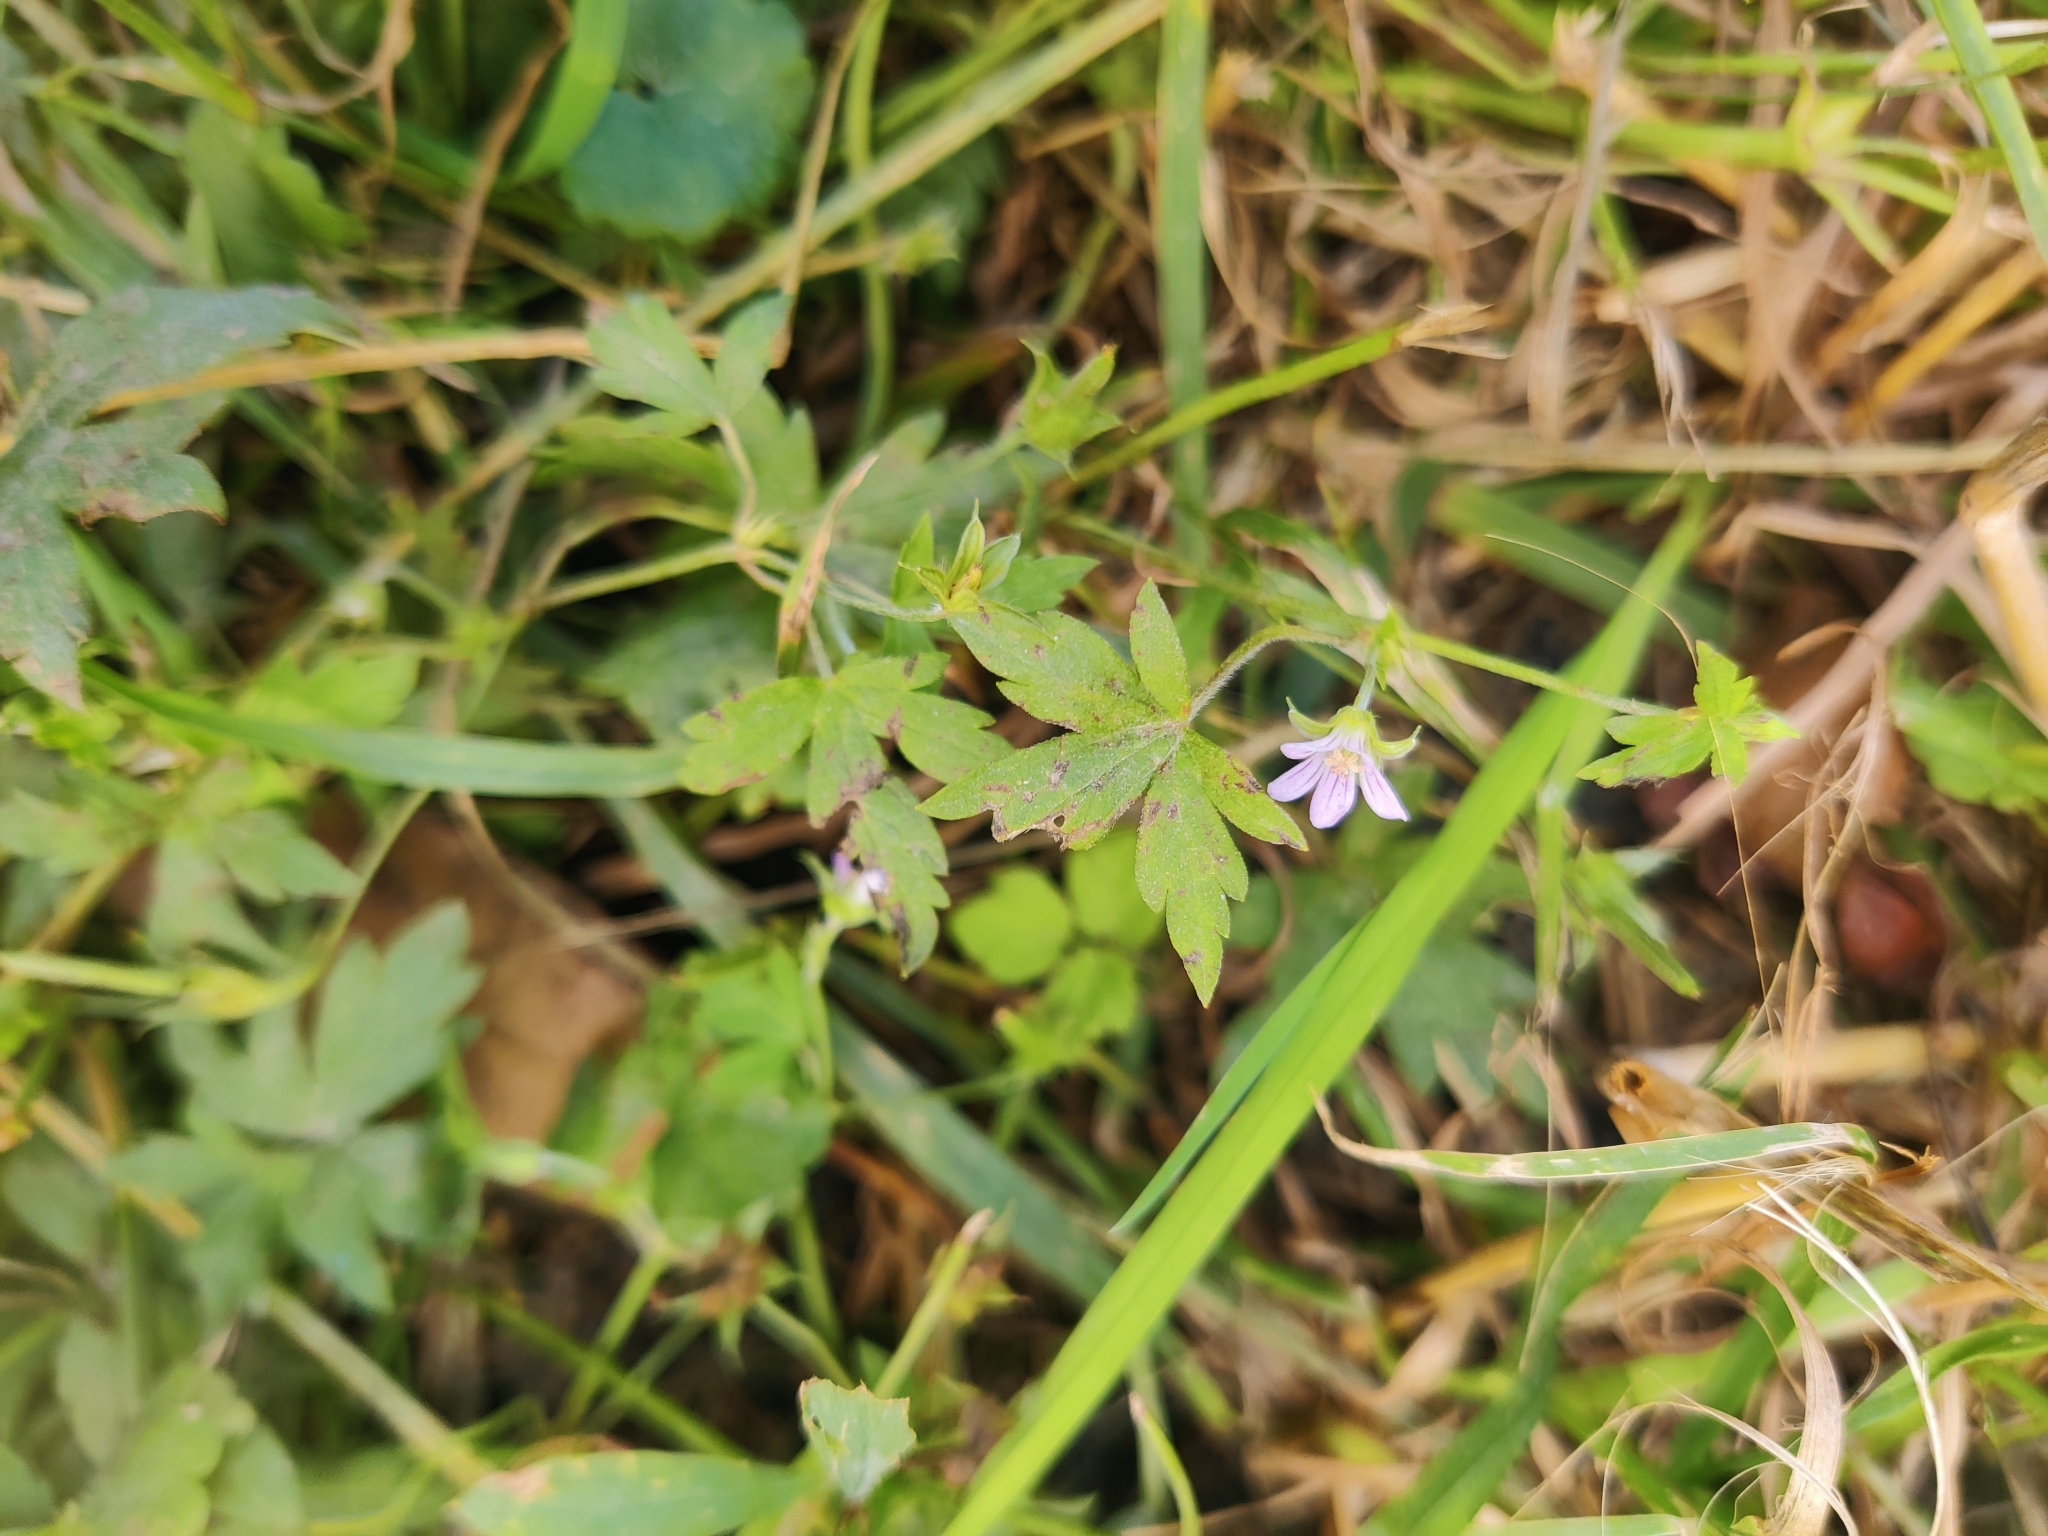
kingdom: Plantae
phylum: Tracheophyta
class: Magnoliopsida
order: Geraniales
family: Geraniaceae
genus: Geranium
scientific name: Geranium sibiricum
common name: Siberian crane's-bill
